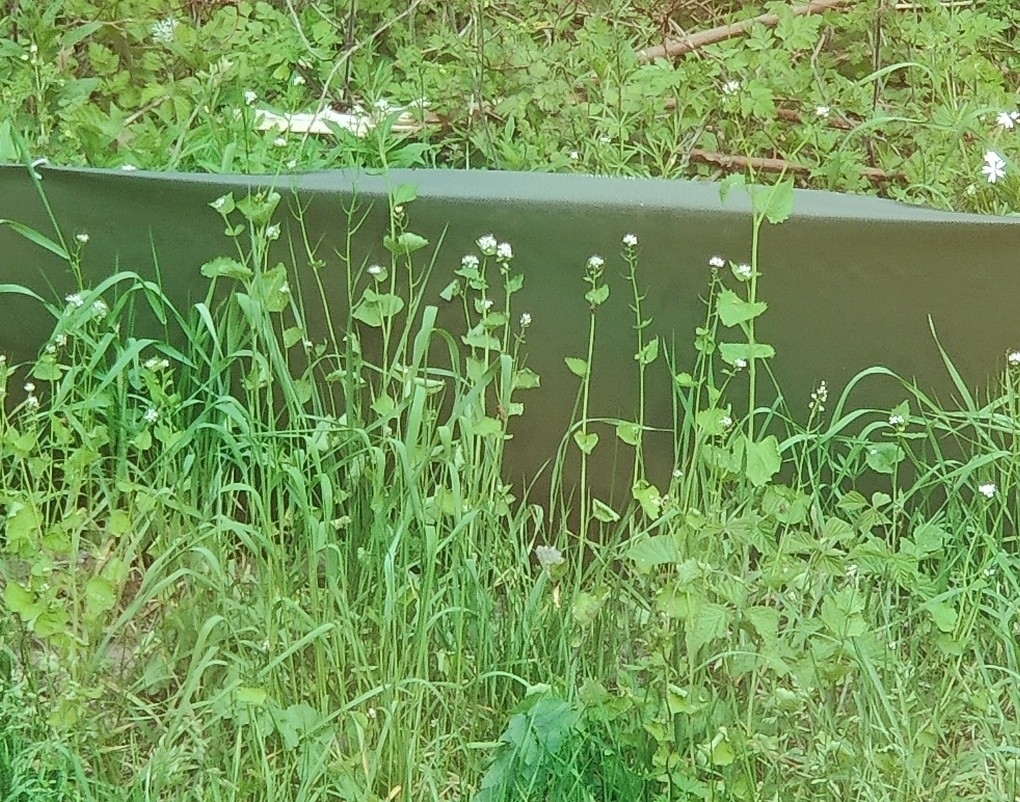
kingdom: Plantae
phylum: Tracheophyta
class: Magnoliopsida
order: Brassicales
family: Brassicaceae
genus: Alliaria
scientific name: Alliaria petiolata
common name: Garlic mustard
